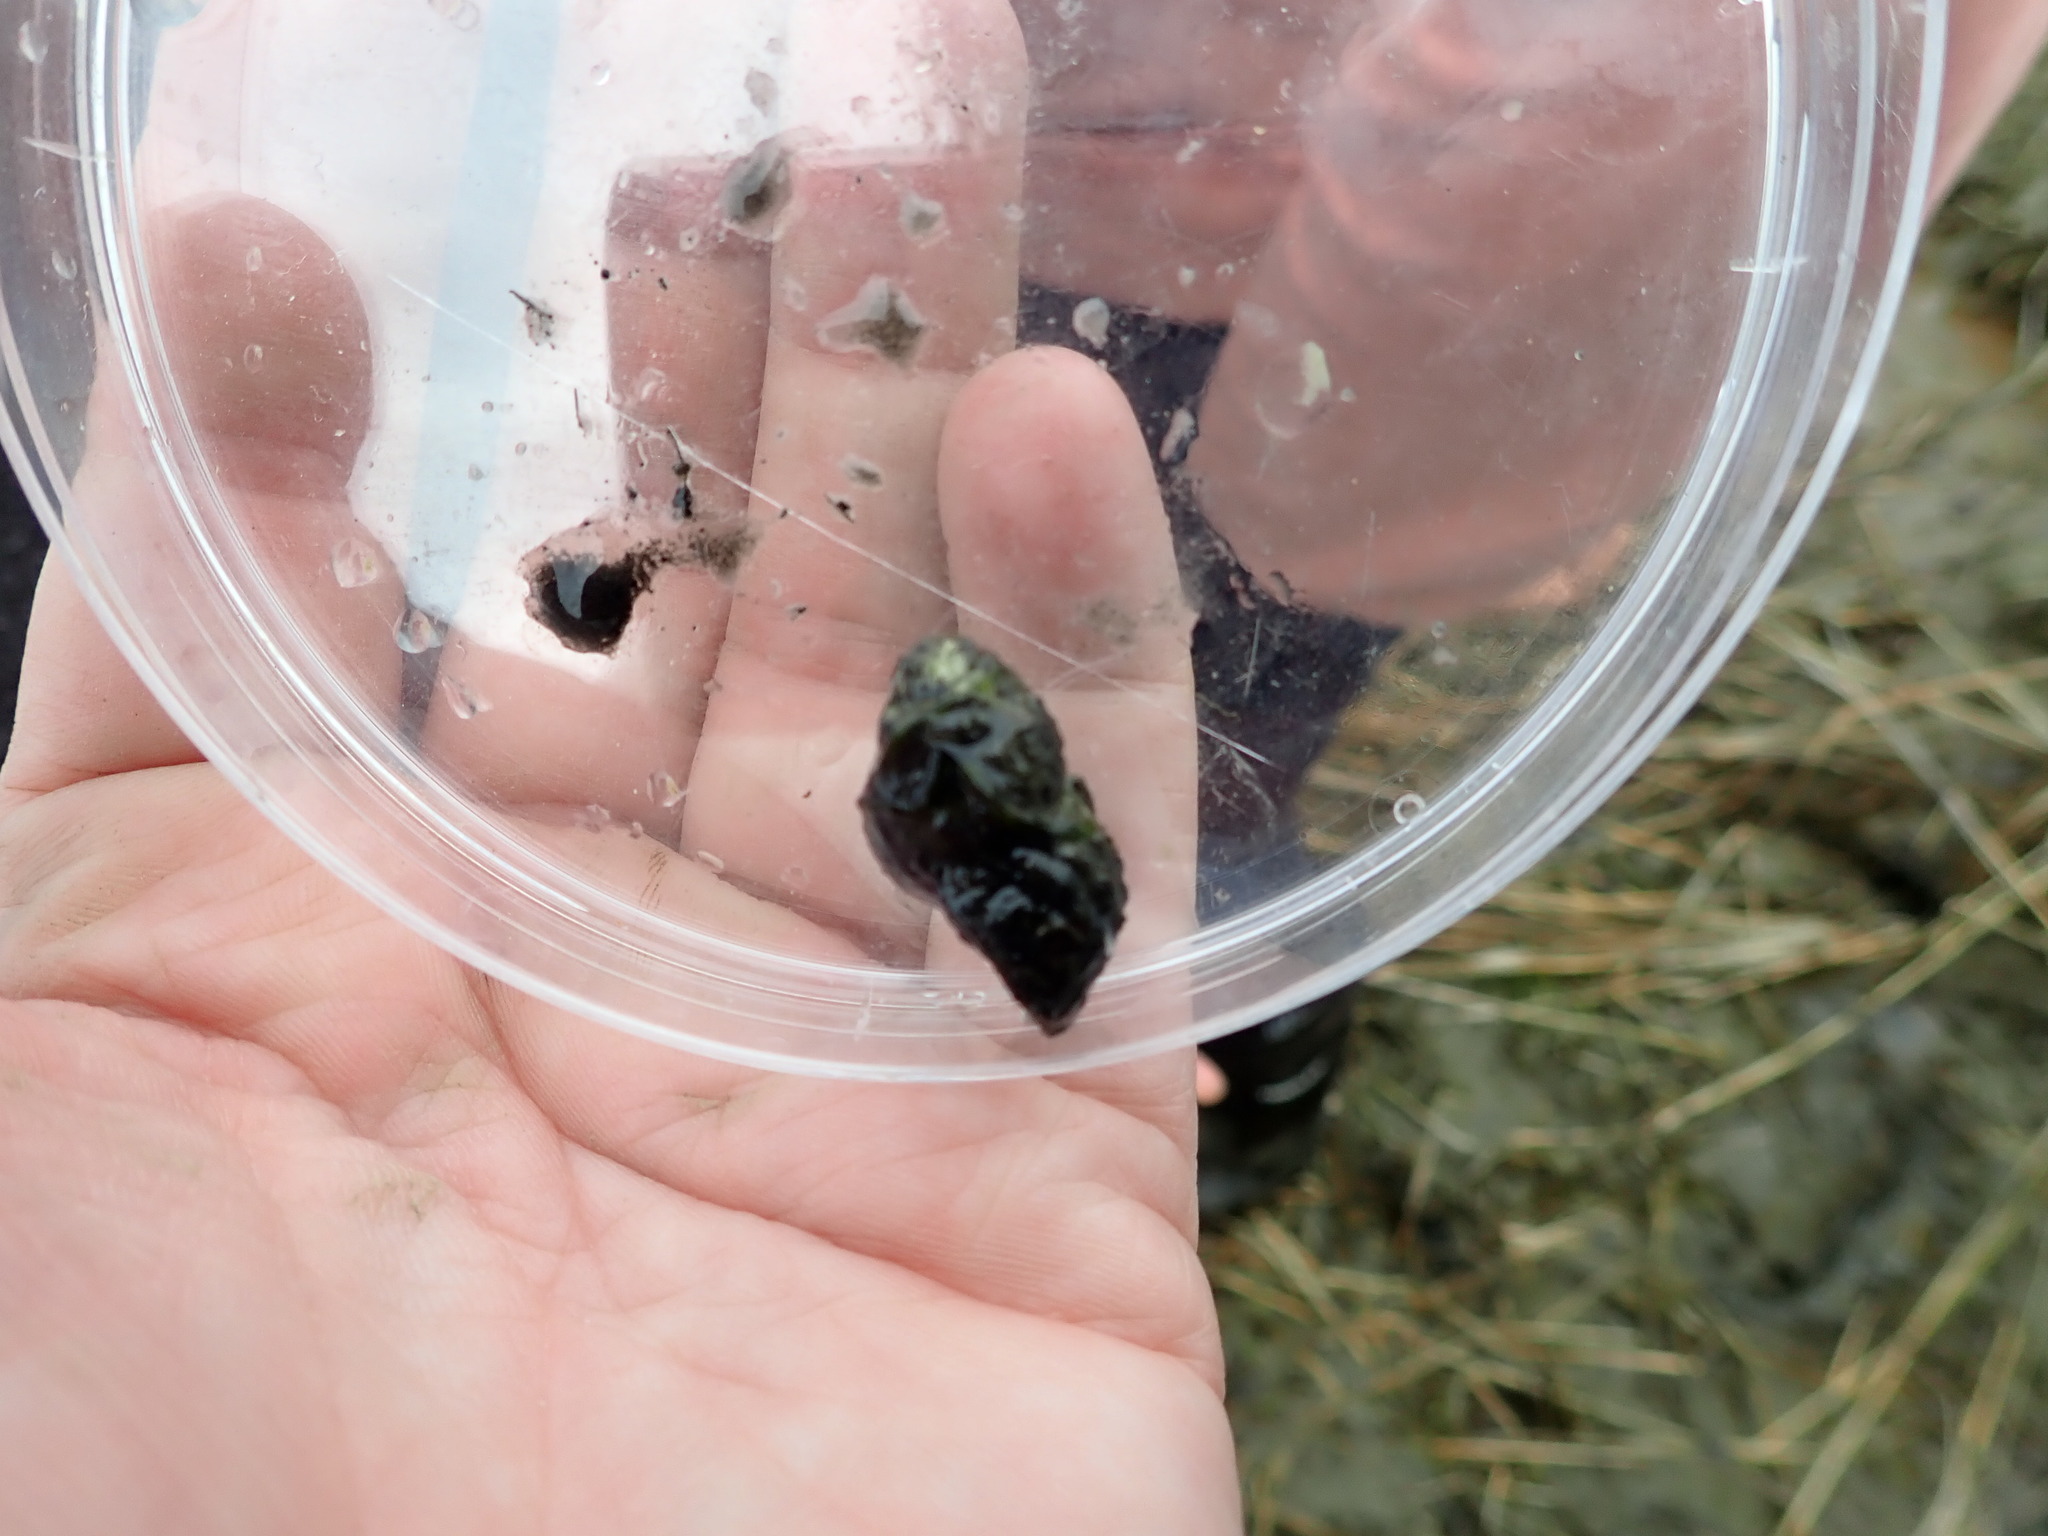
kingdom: Animalia
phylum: Mollusca
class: Gastropoda
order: Neogastropoda
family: Nassariidae
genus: Ilyanassa
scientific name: Ilyanassa obsoleta
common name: Eastern mudsnail
